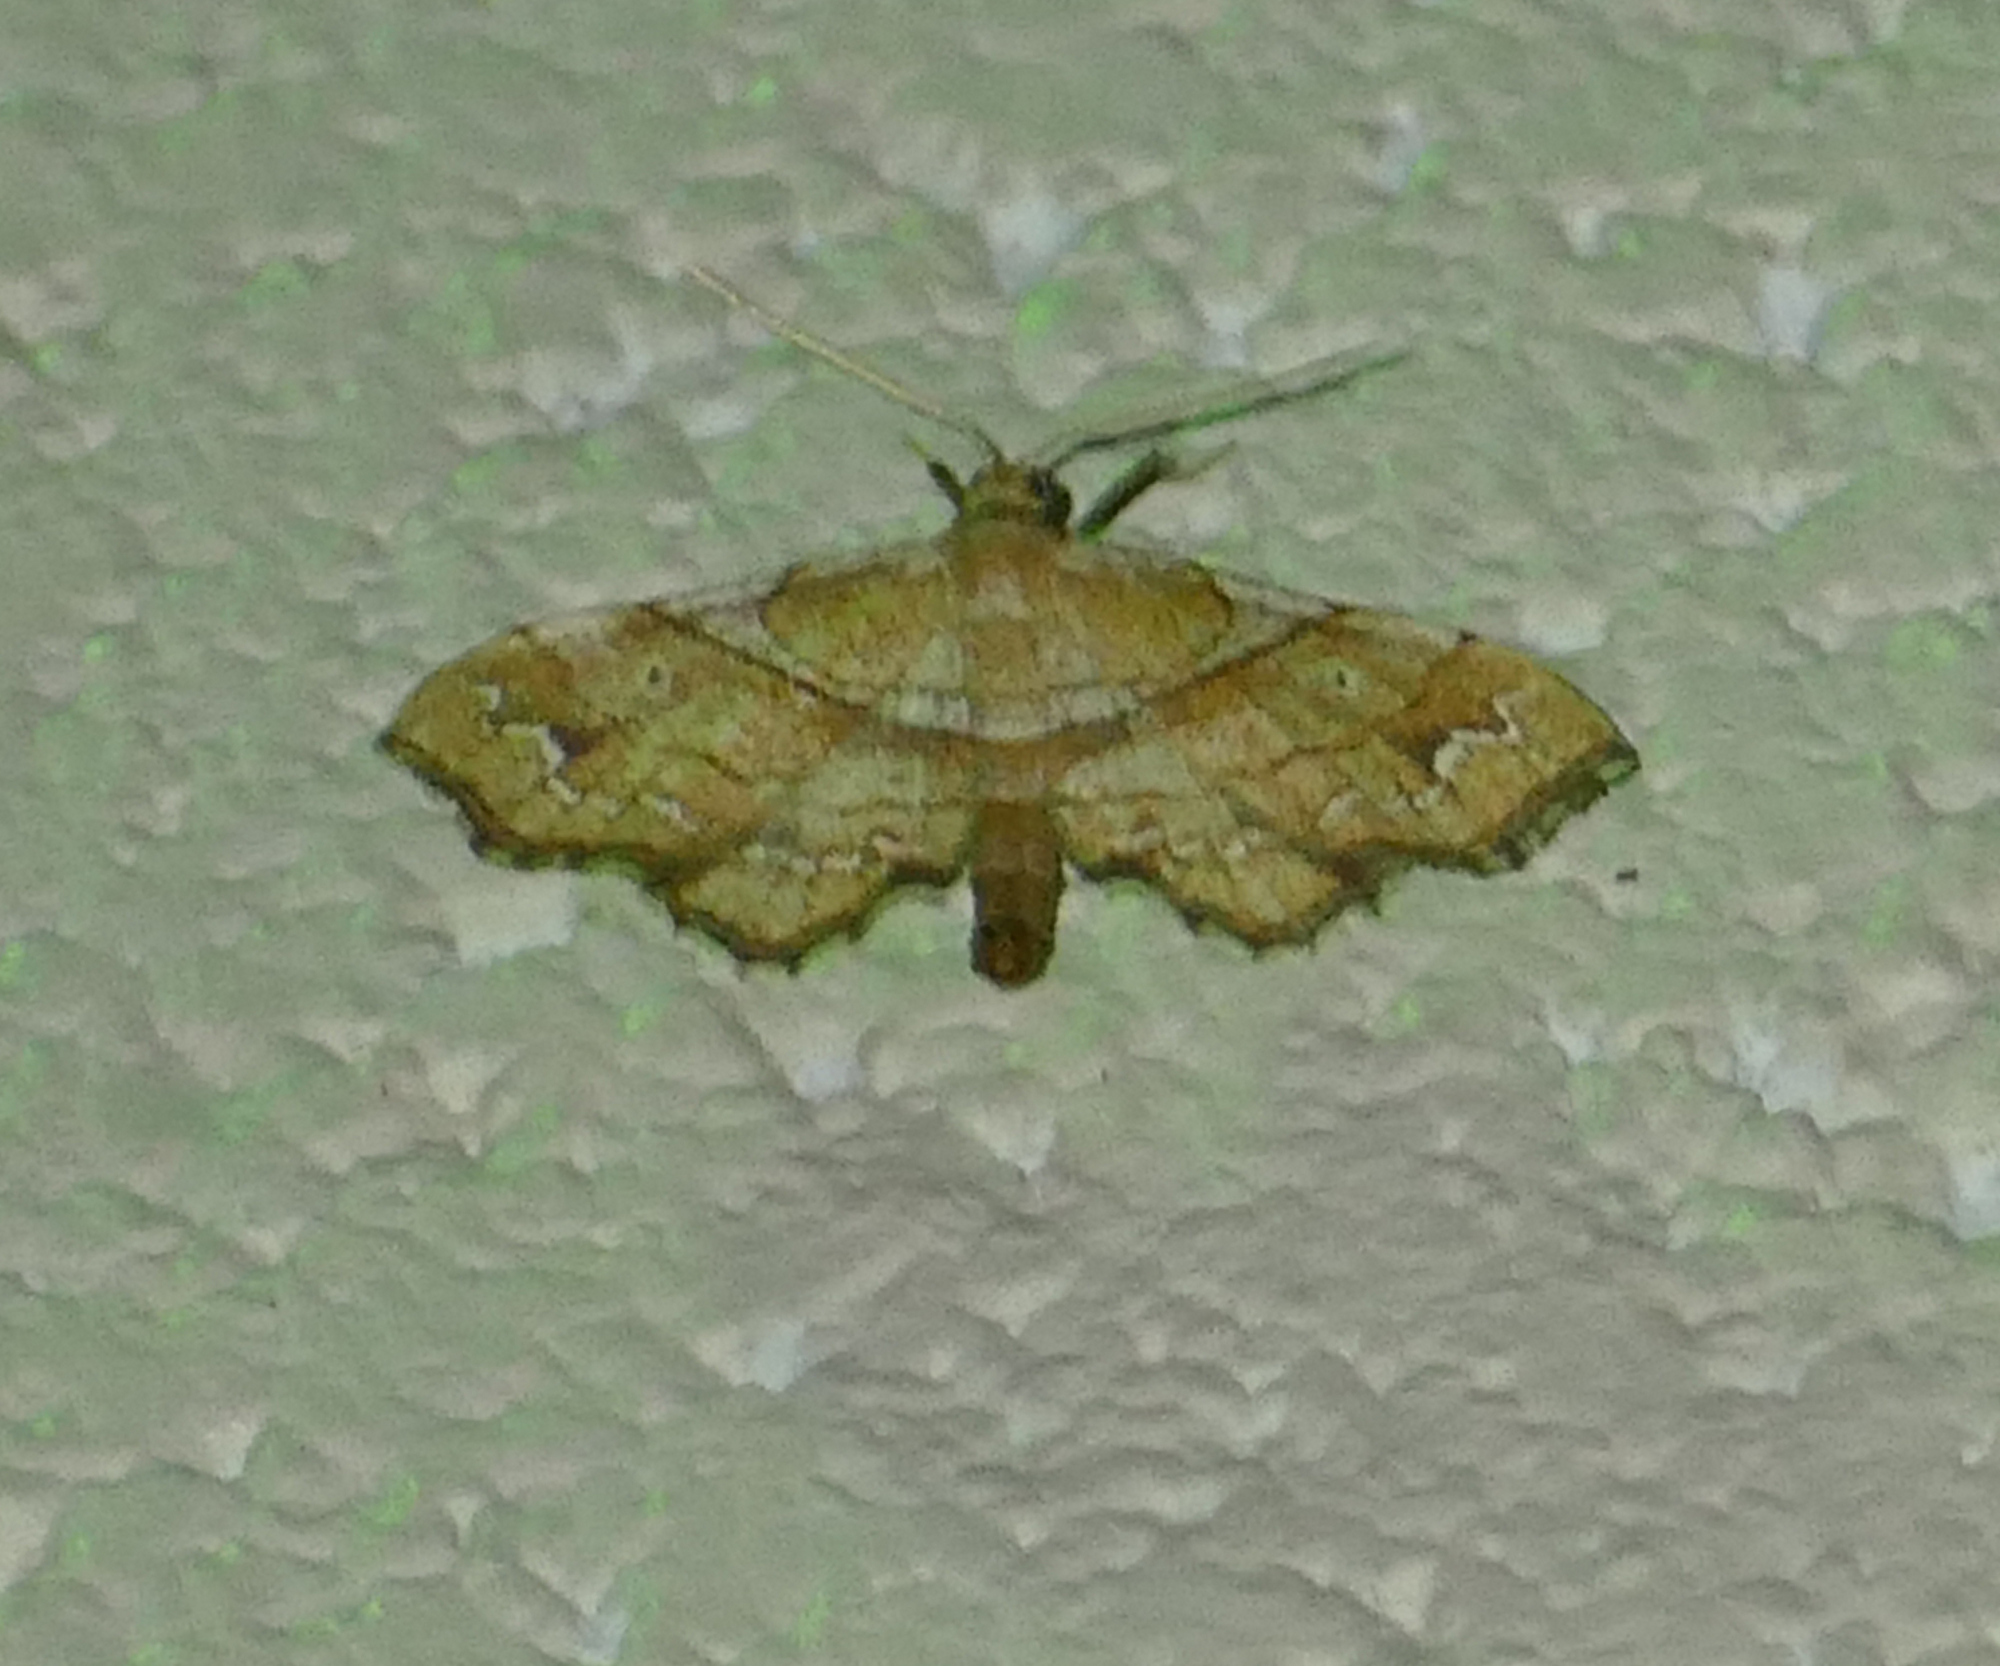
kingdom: Animalia
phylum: Arthropoda
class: Insecta
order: Lepidoptera
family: Geometridae
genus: Odontoptila
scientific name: Odontoptila obrimo
